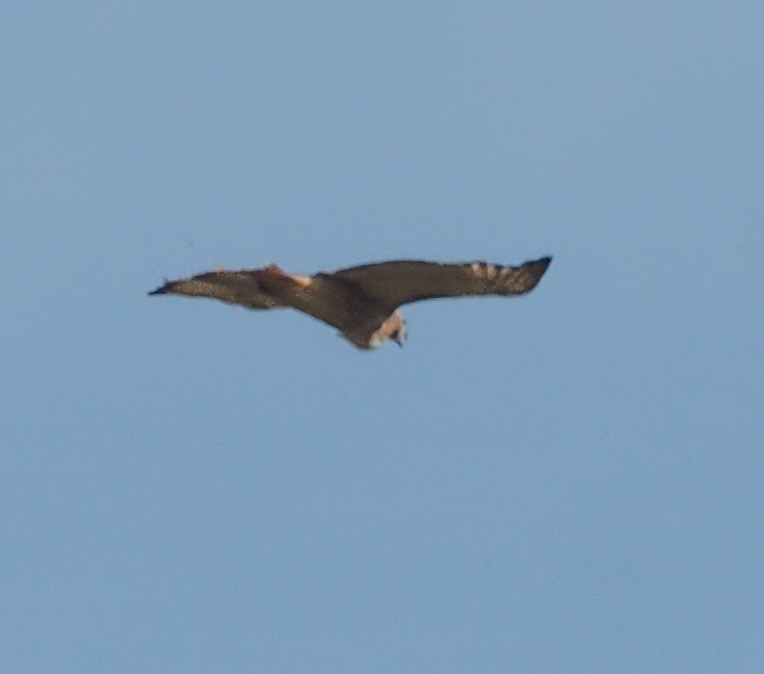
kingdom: Animalia
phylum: Chordata
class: Aves
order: Accipitriformes
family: Accipitridae
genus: Buteo
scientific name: Buteo jamaicensis
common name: Red-tailed hawk
